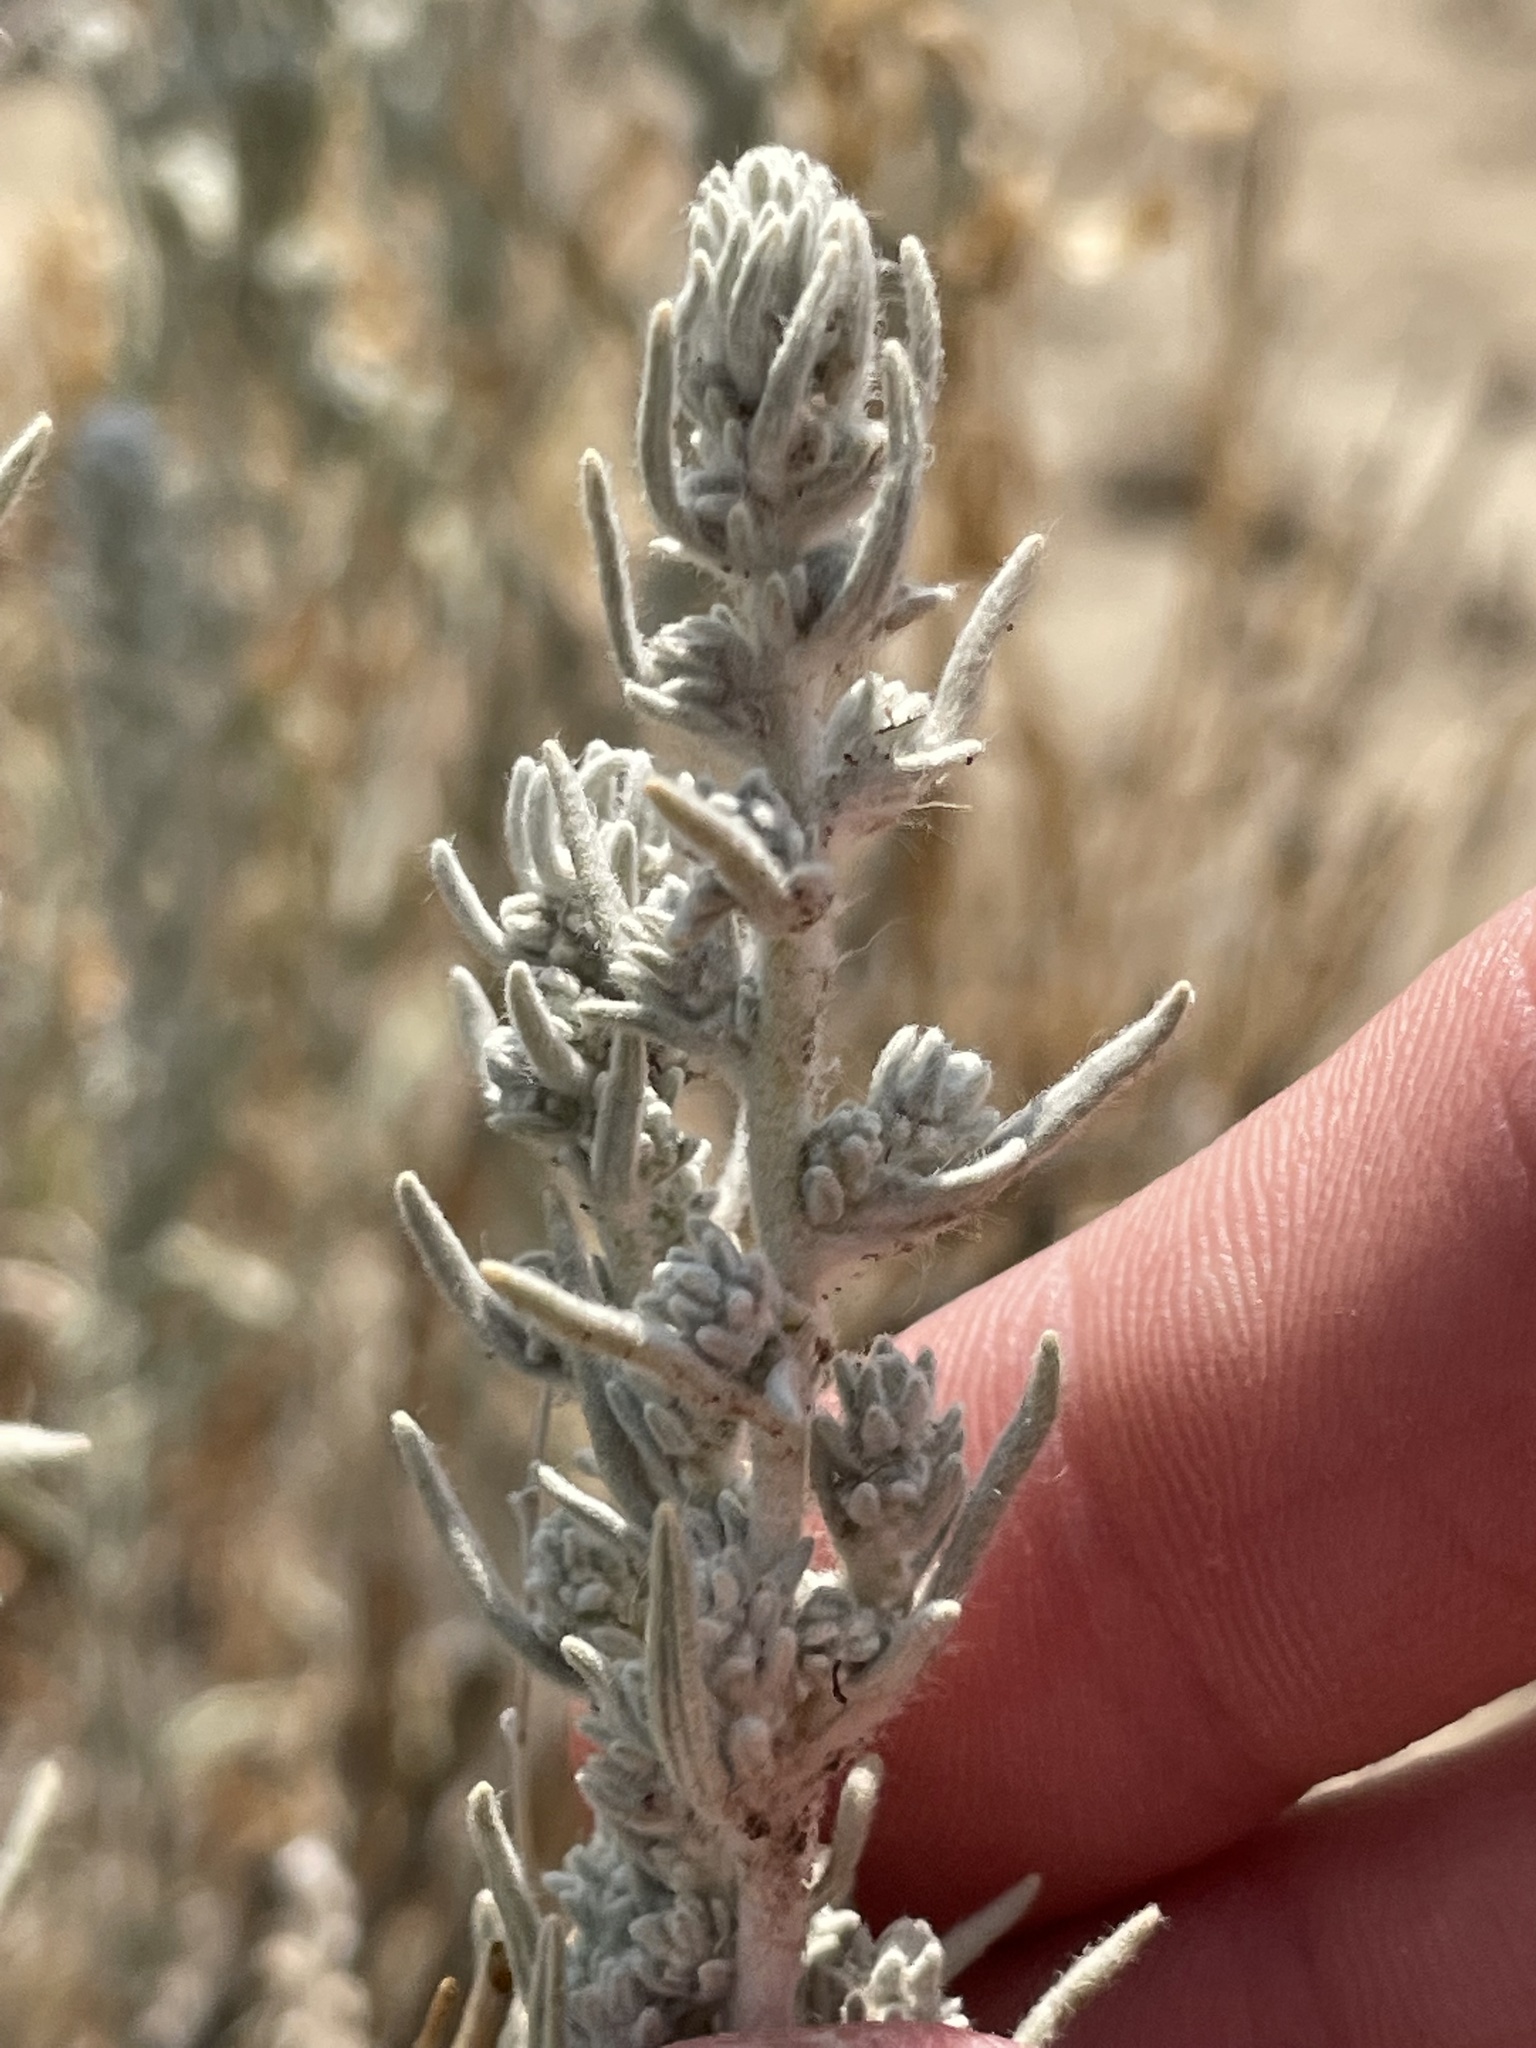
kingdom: Plantae
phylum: Tracheophyta
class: Magnoliopsida
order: Caryophyllales
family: Amaranthaceae
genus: Krascheninnikovia
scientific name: Krascheninnikovia lanata
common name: Winterfat
